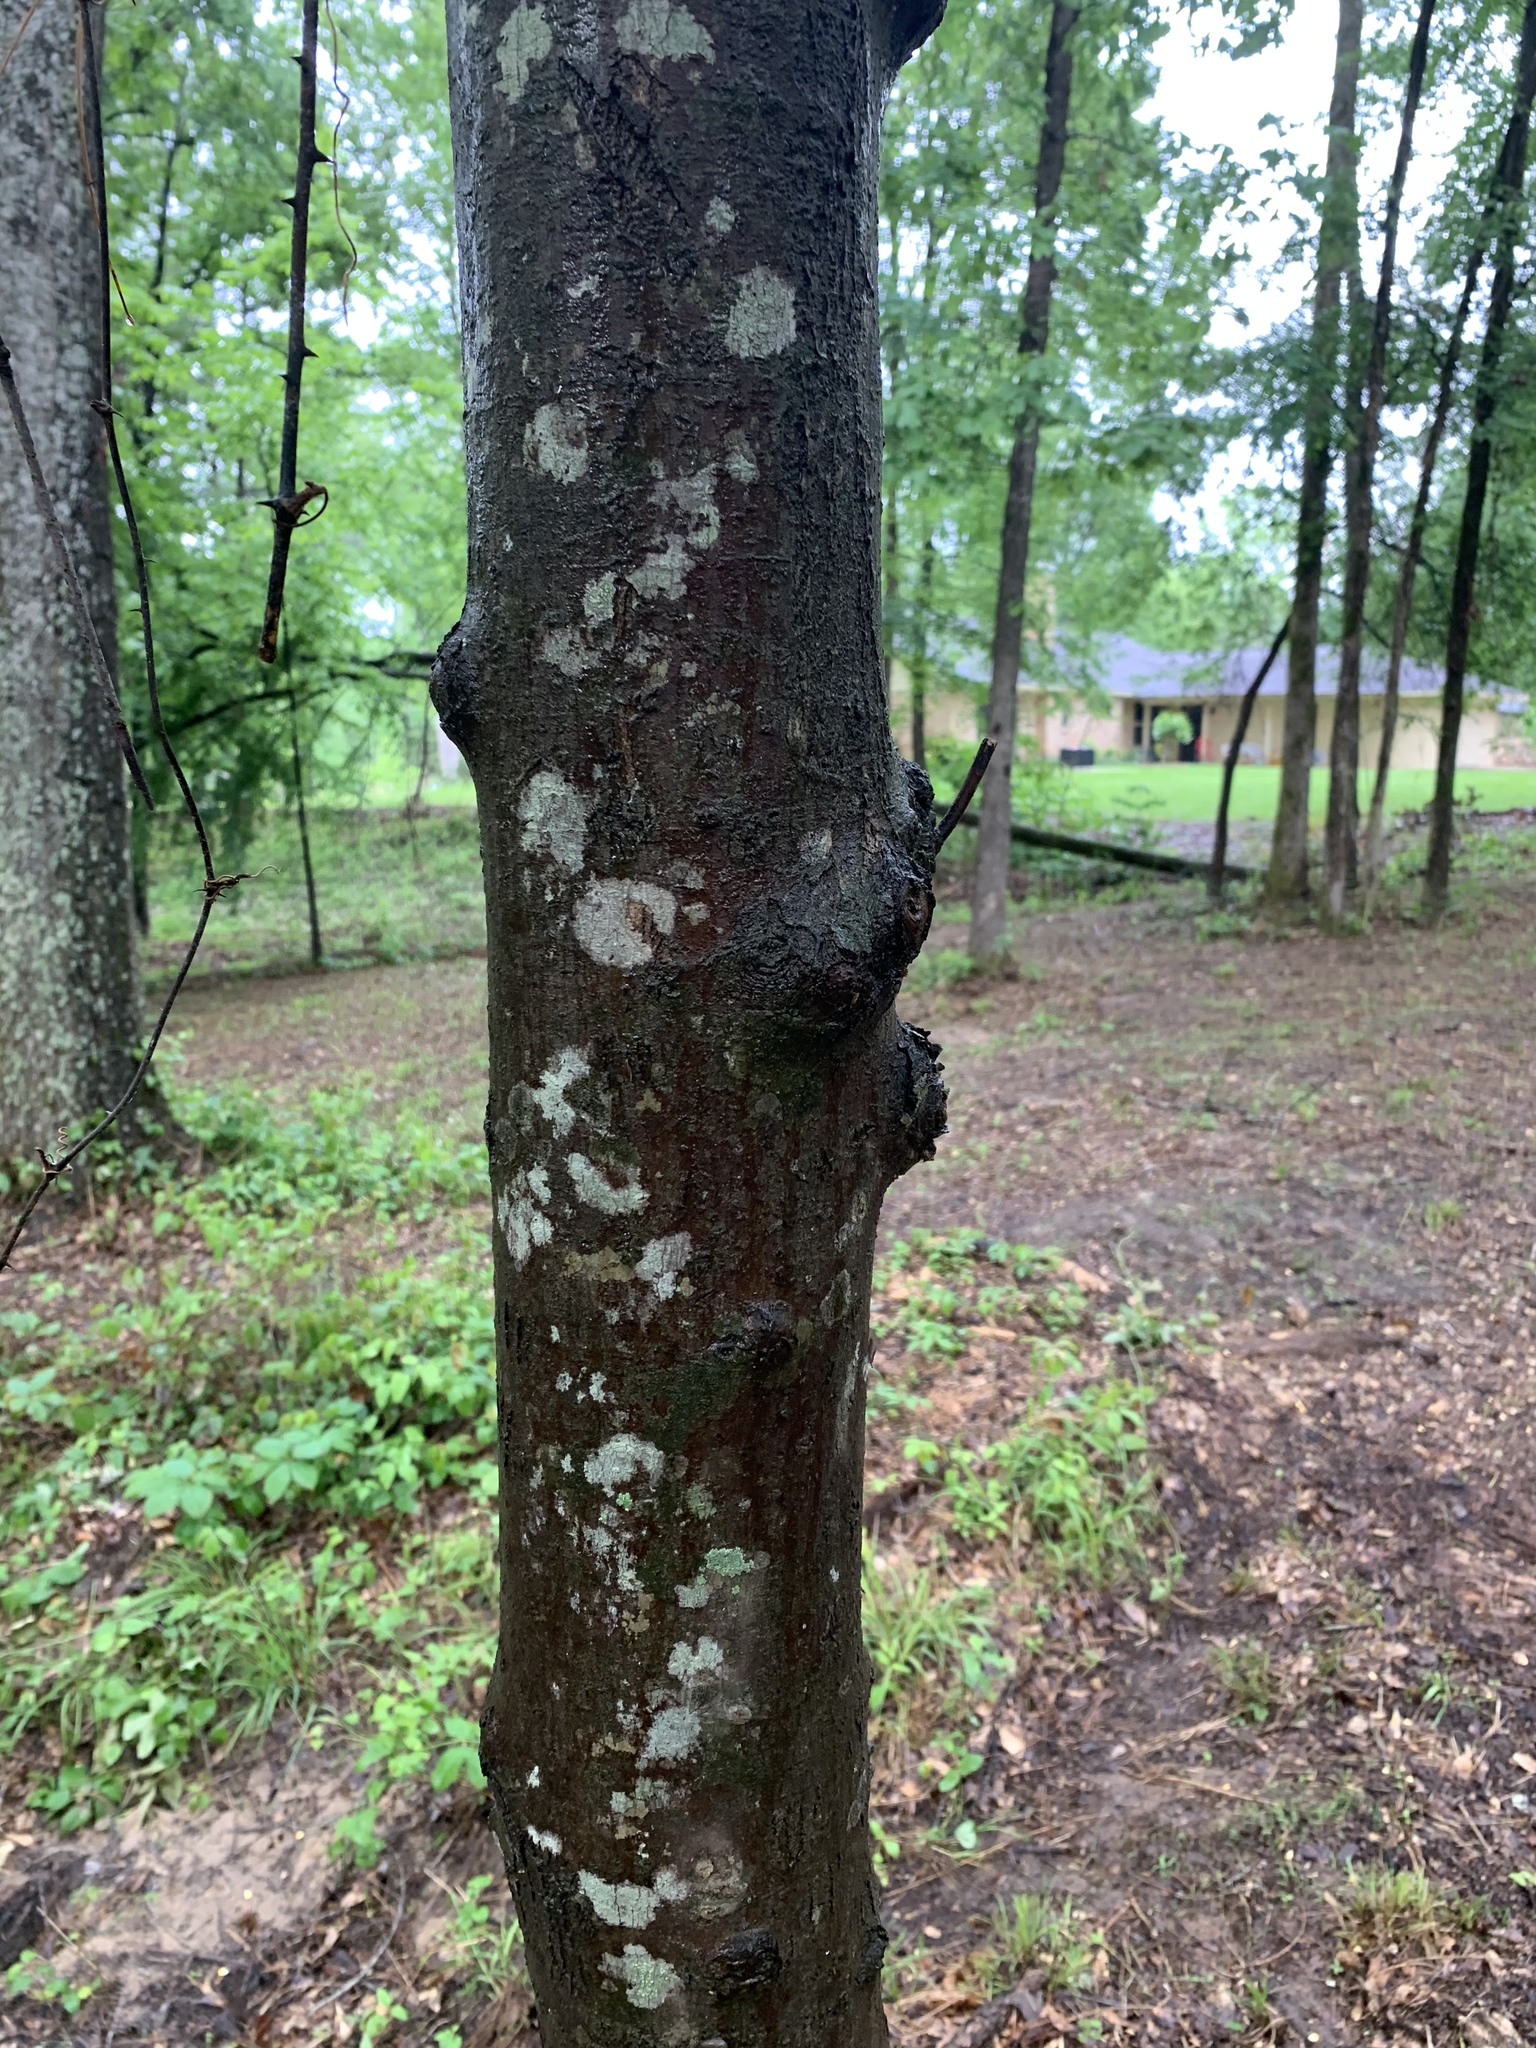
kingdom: Plantae
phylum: Tracheophyta
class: Magnoliopsida
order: Sapindales
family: Sapindaceae
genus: Acer
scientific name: Acer rubrum
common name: Red maple
